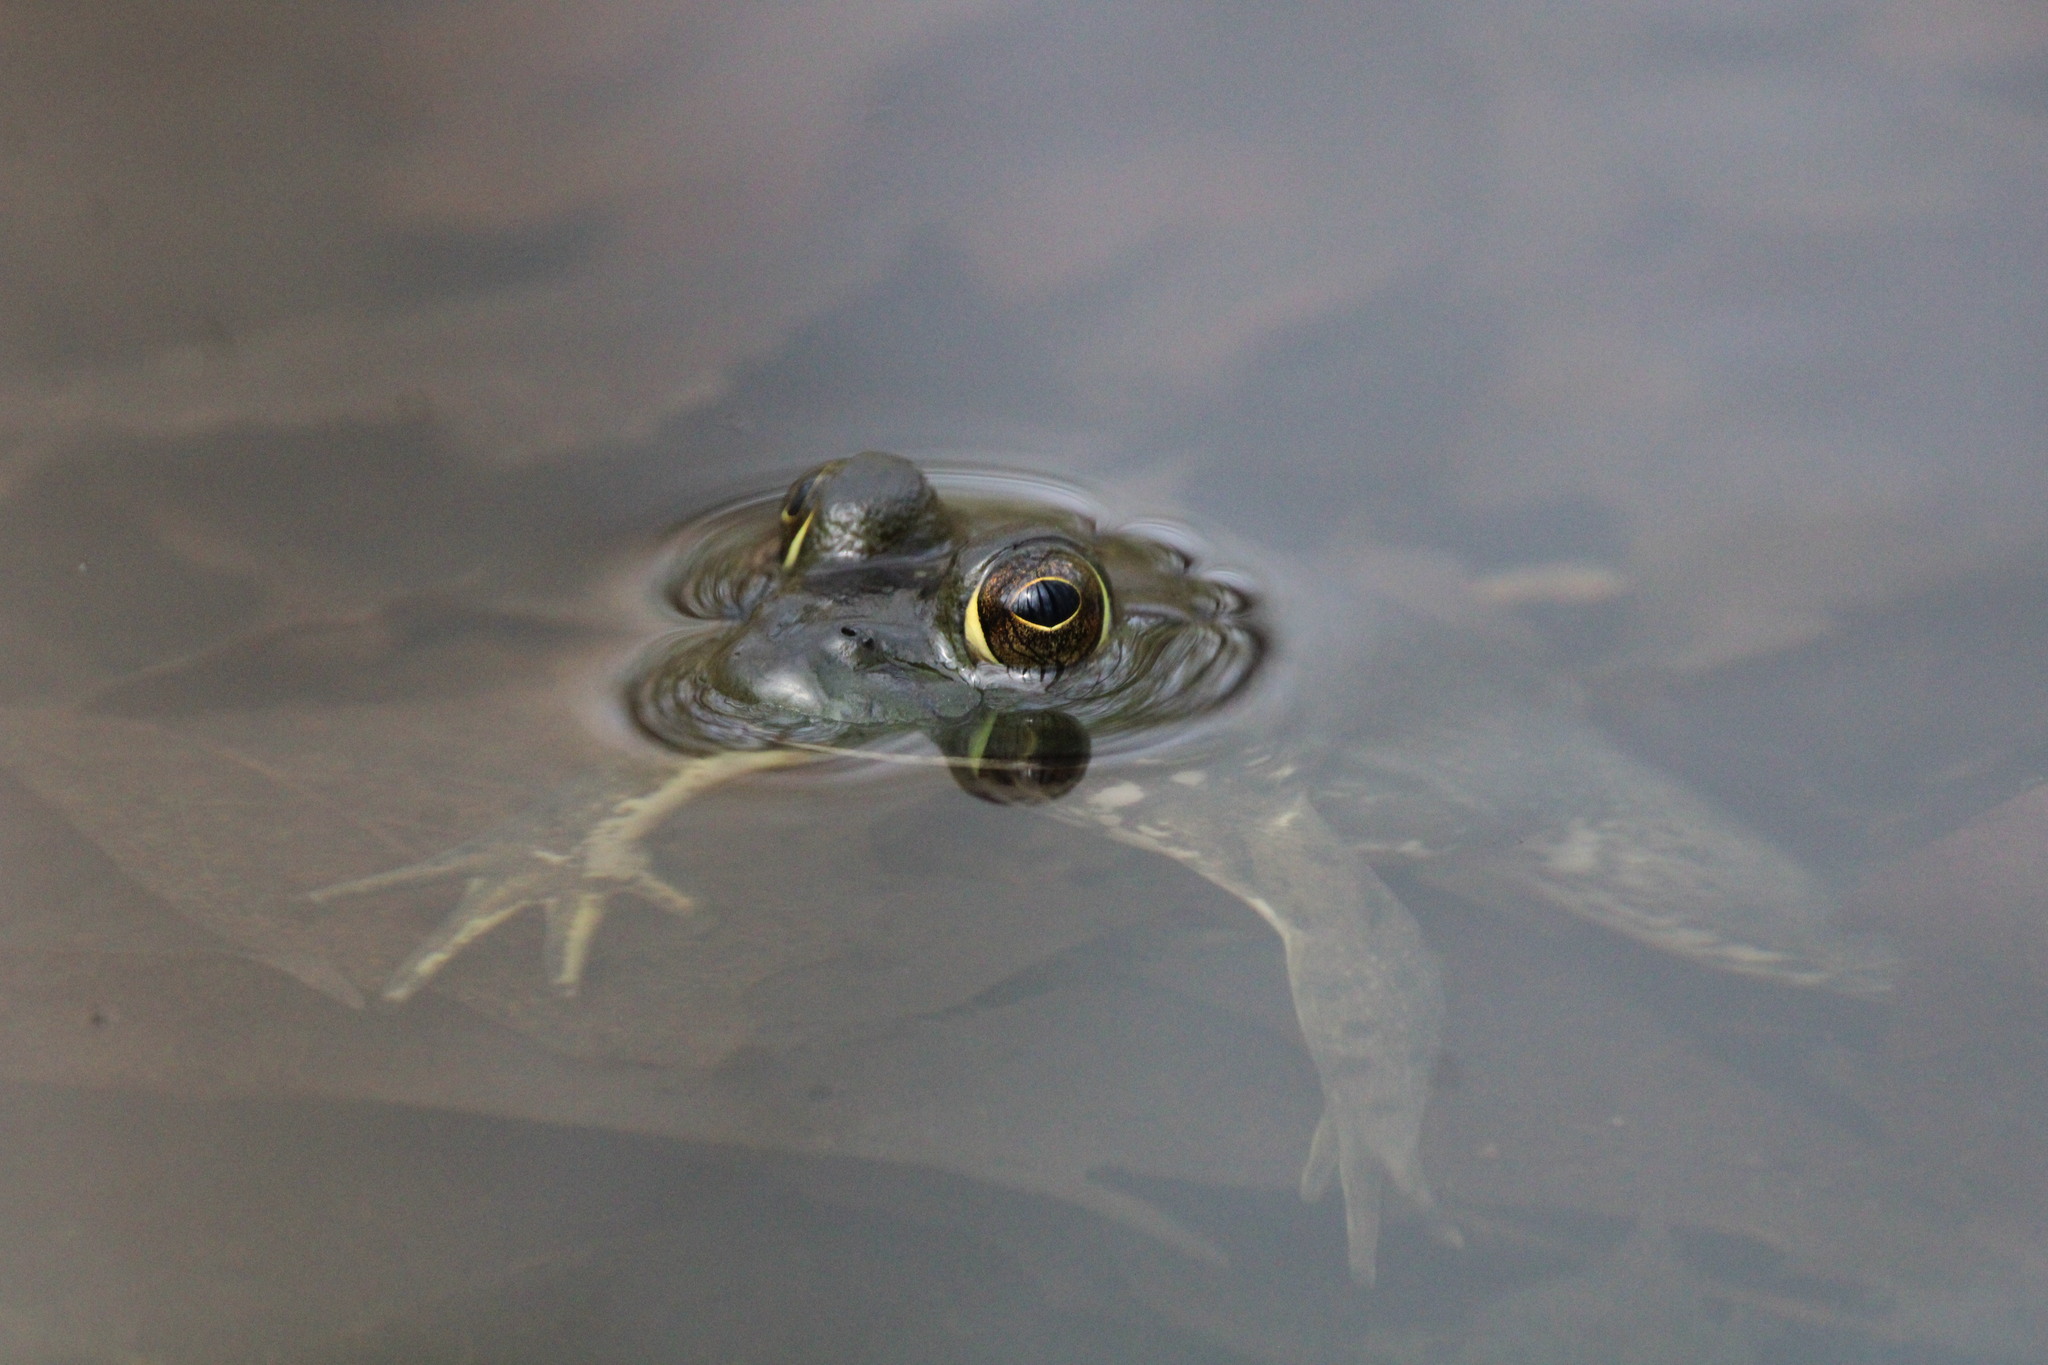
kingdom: Animalia
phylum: Chordata
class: Amphibia
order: Anura
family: Ranidae
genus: Lithobates
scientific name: Lithobates catesbeianus
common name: American bullfrog
